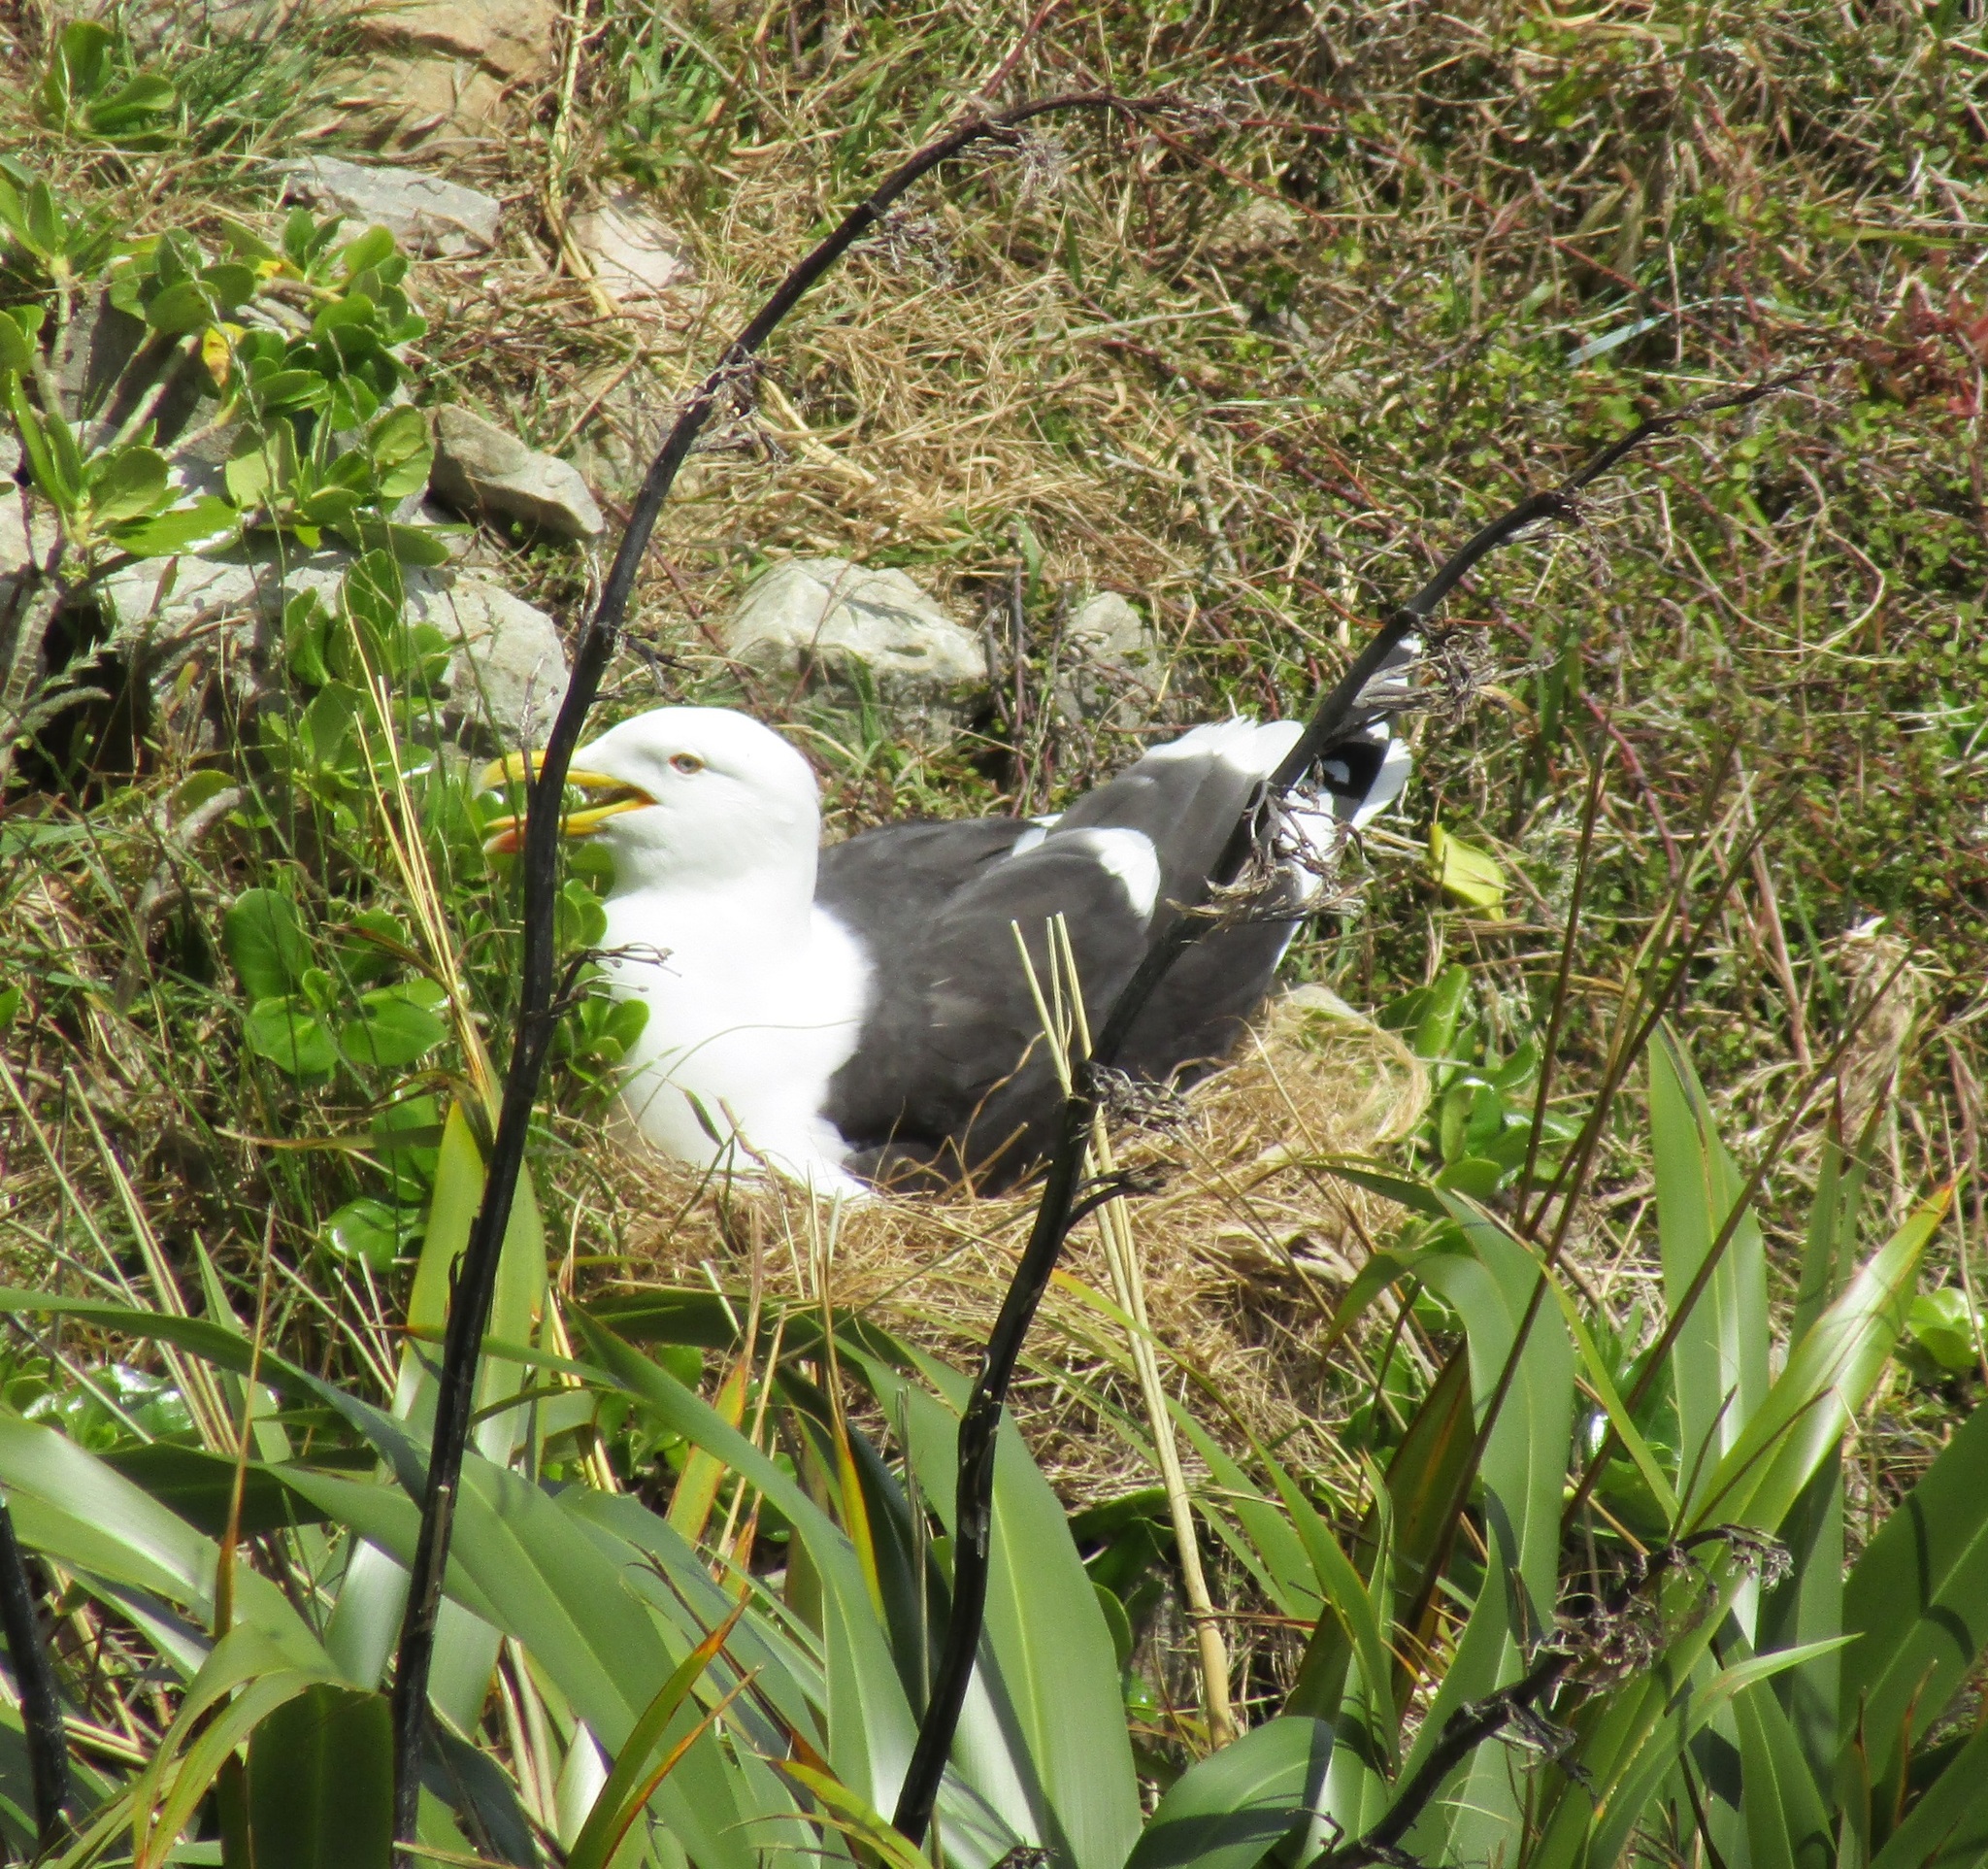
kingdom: Animalia
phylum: Chordata
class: Aves
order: Charadriiformes
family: Laridae
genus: Larus
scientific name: Larus dominicanus
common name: Kelp gull
